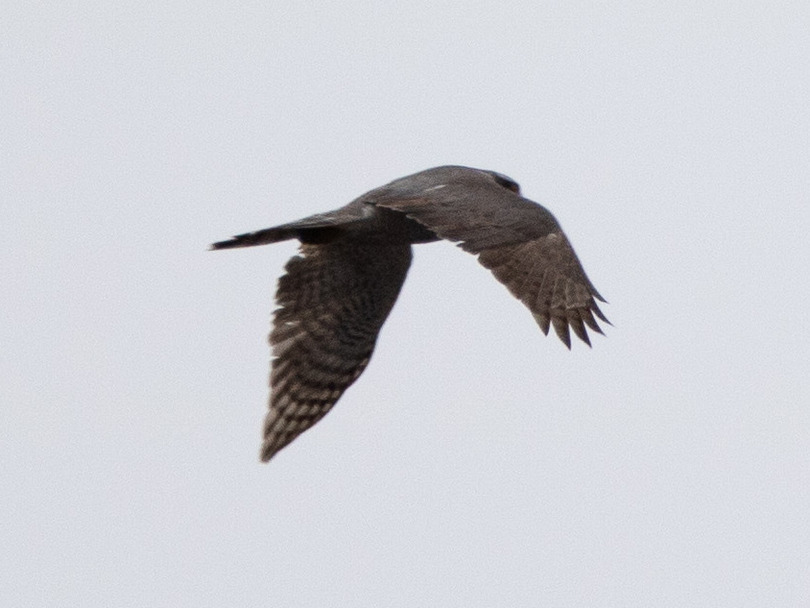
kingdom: Animalia
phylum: Chordata
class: Aves
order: Accipitriformes
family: Accipitridae
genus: Accipiter
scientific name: Accipiter gentilis
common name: Northern goshawk
